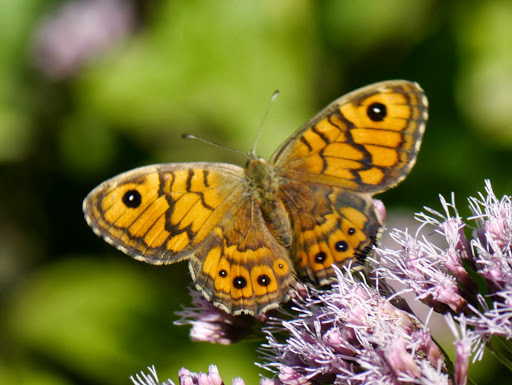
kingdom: Animalia
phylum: Arthropoda
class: Insecta
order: Lepidoptera
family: Nymphalidae
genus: Pararge
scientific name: Pararge Lasiommata megera
